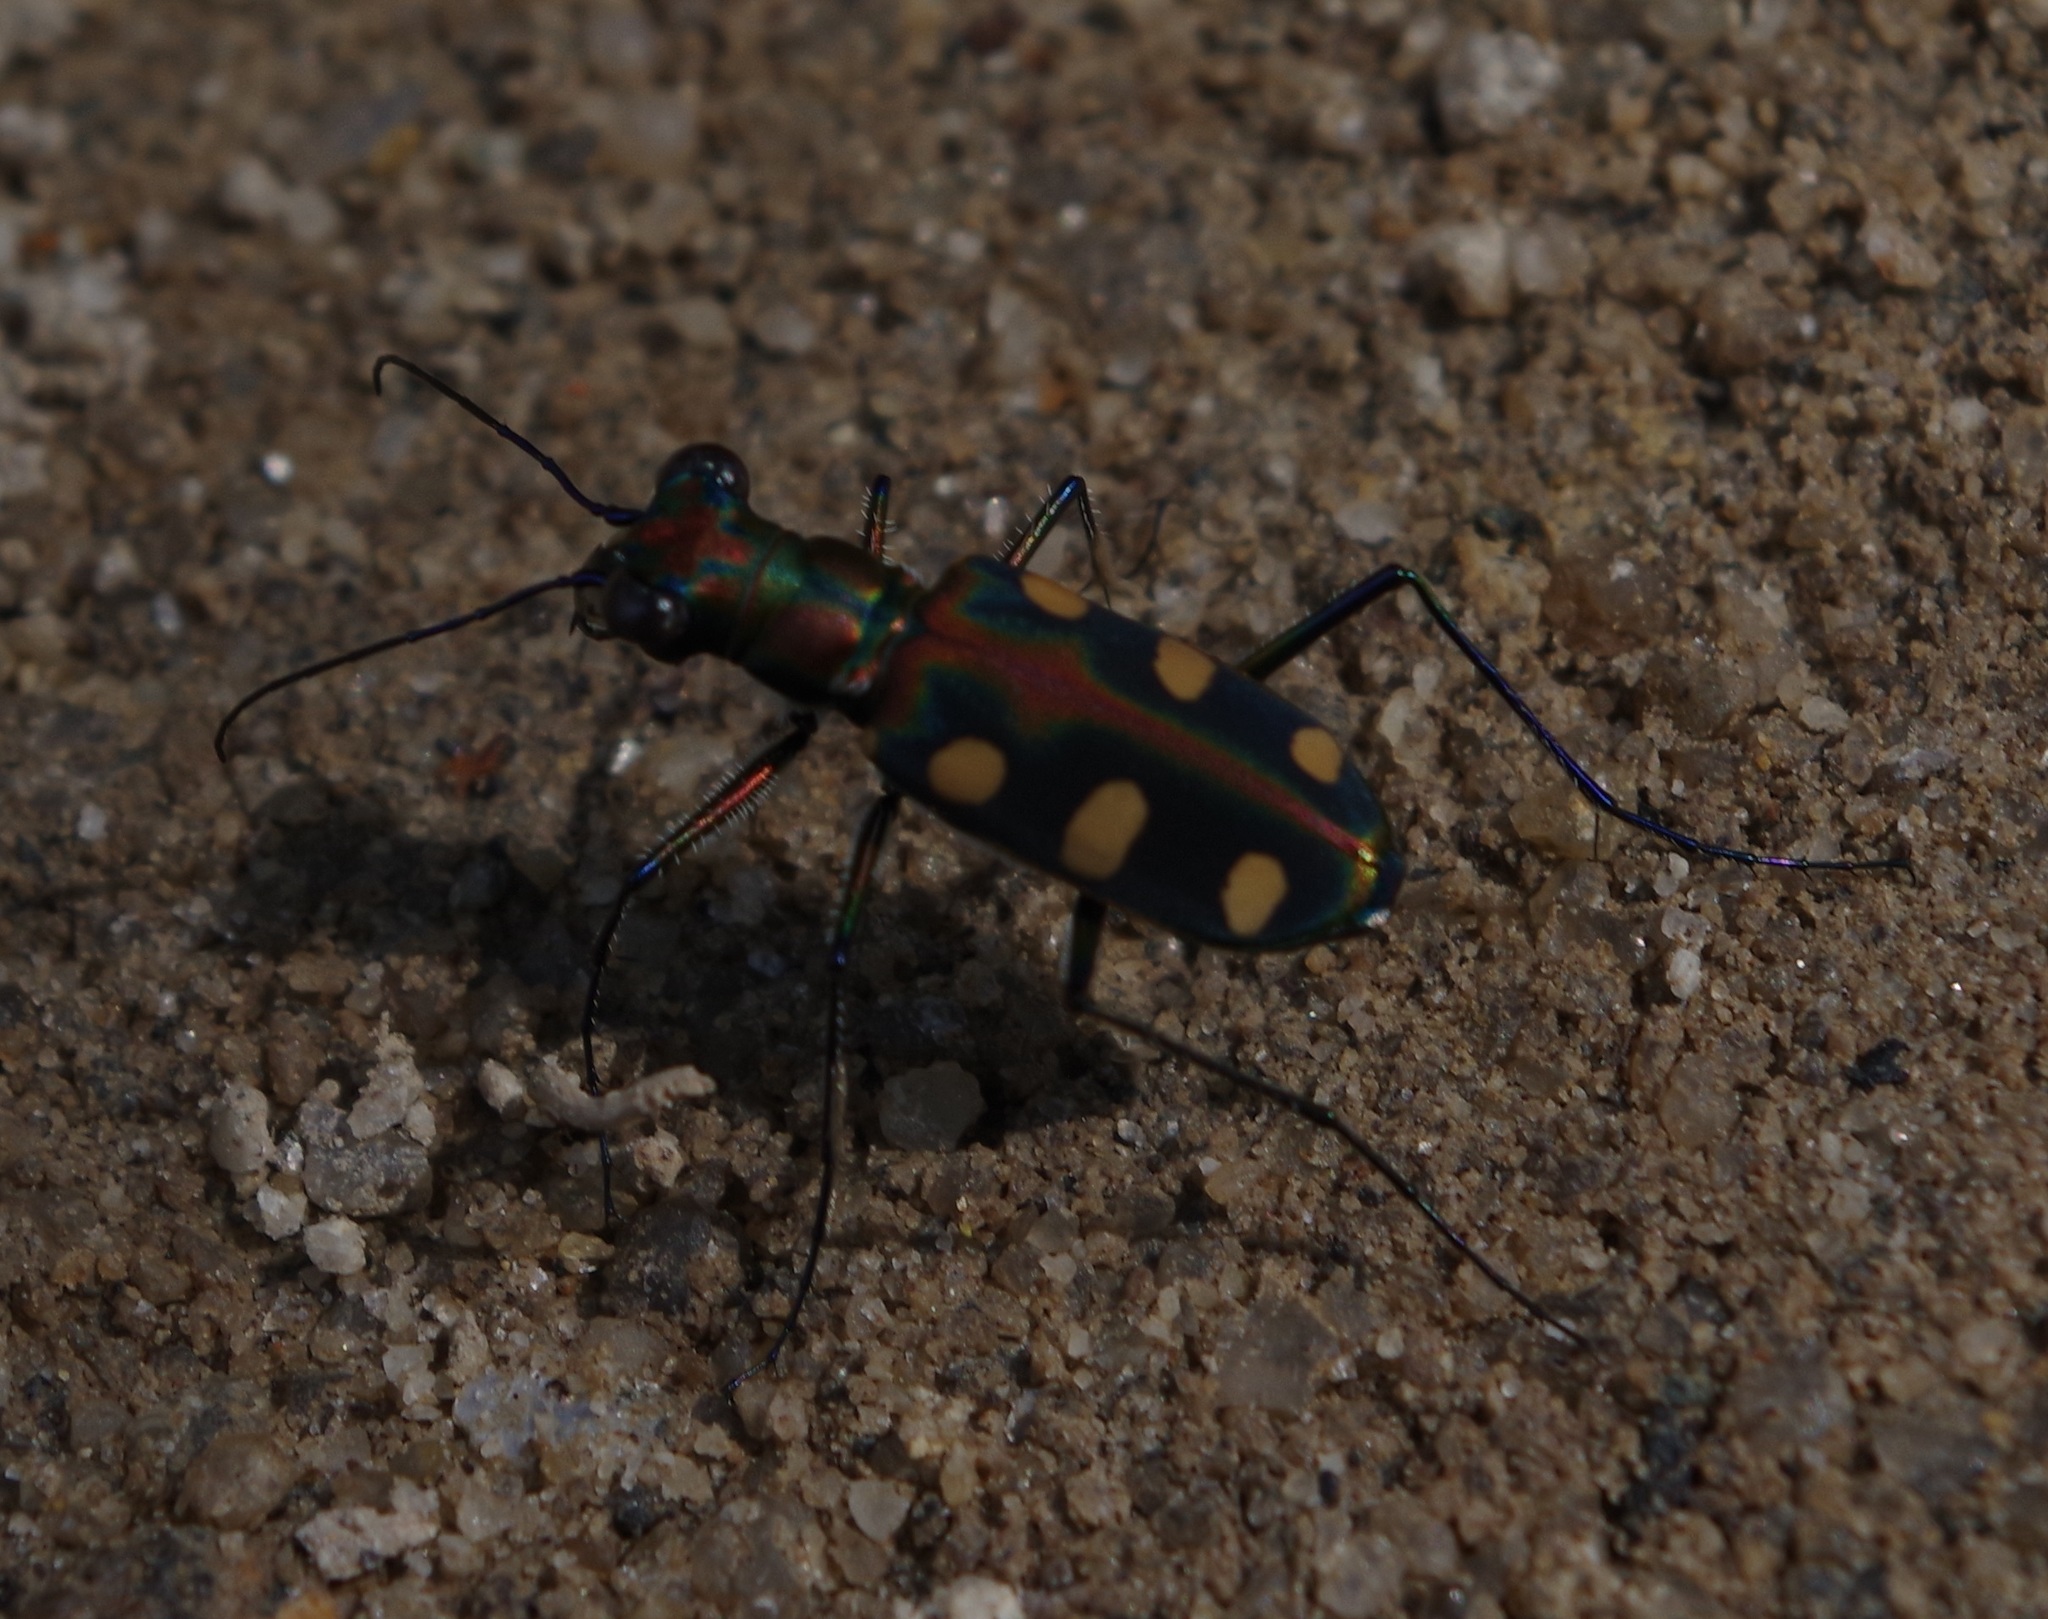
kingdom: Animalia
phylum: Arthropoda
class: Insecta
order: Coleoptera
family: Carabidae
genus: Cicindela
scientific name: Cicindela aurulenta
